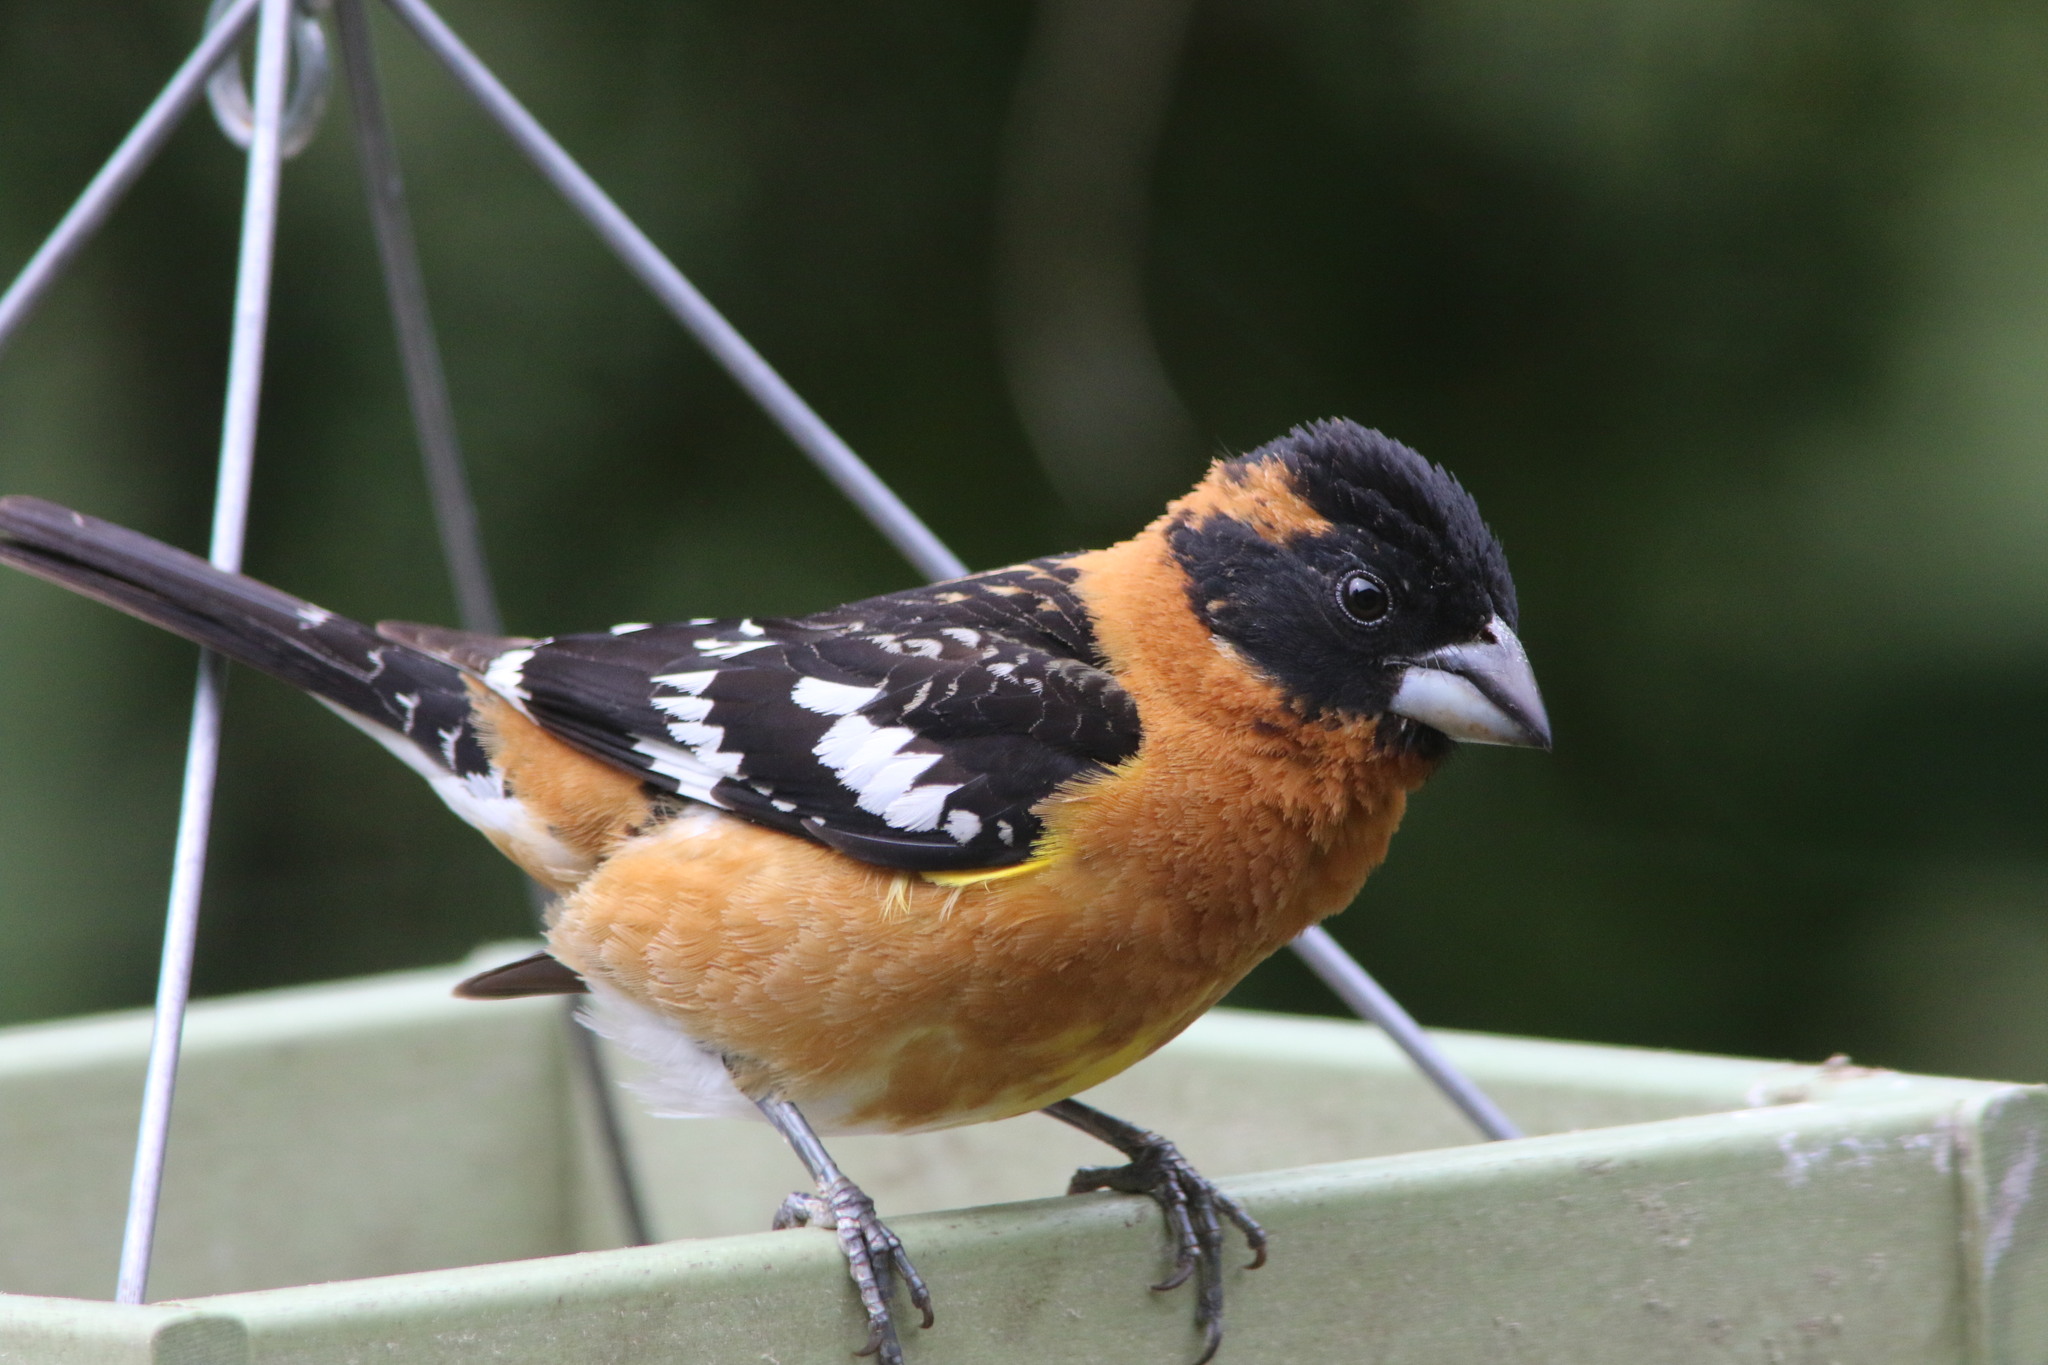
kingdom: Animalia
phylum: Chordata
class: Aves
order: Passeriformes
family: Cardinalidae
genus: Pheucticus
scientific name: Pheucticus melanocephalus
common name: Black-headed grosbeak
